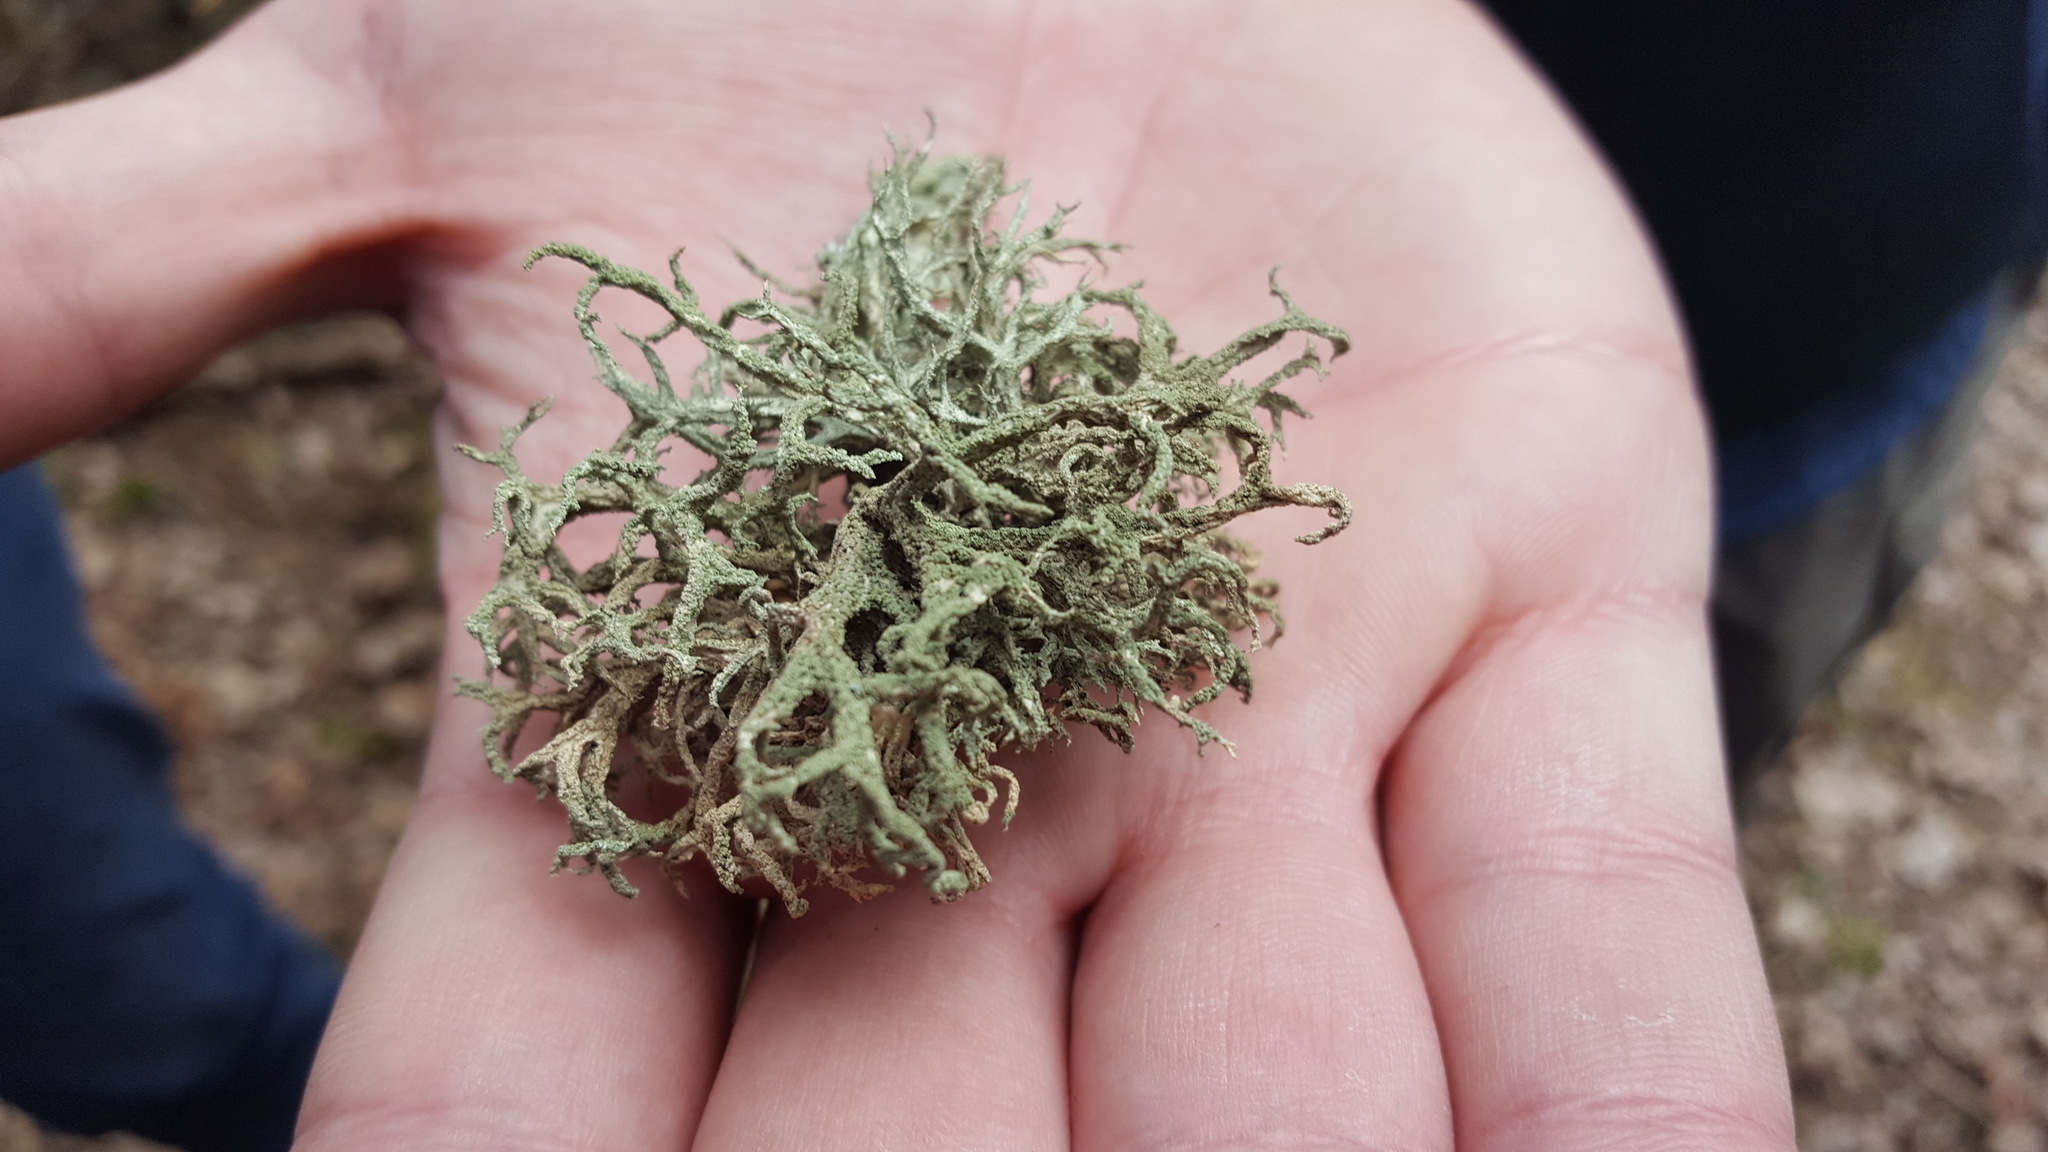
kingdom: Fungi
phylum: Ascomycota
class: Lecanoromycetes
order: Lecanorales
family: Parmeliaceae
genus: Evernia
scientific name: Evernia mesomorpha
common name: Boreal oak moss lichen
